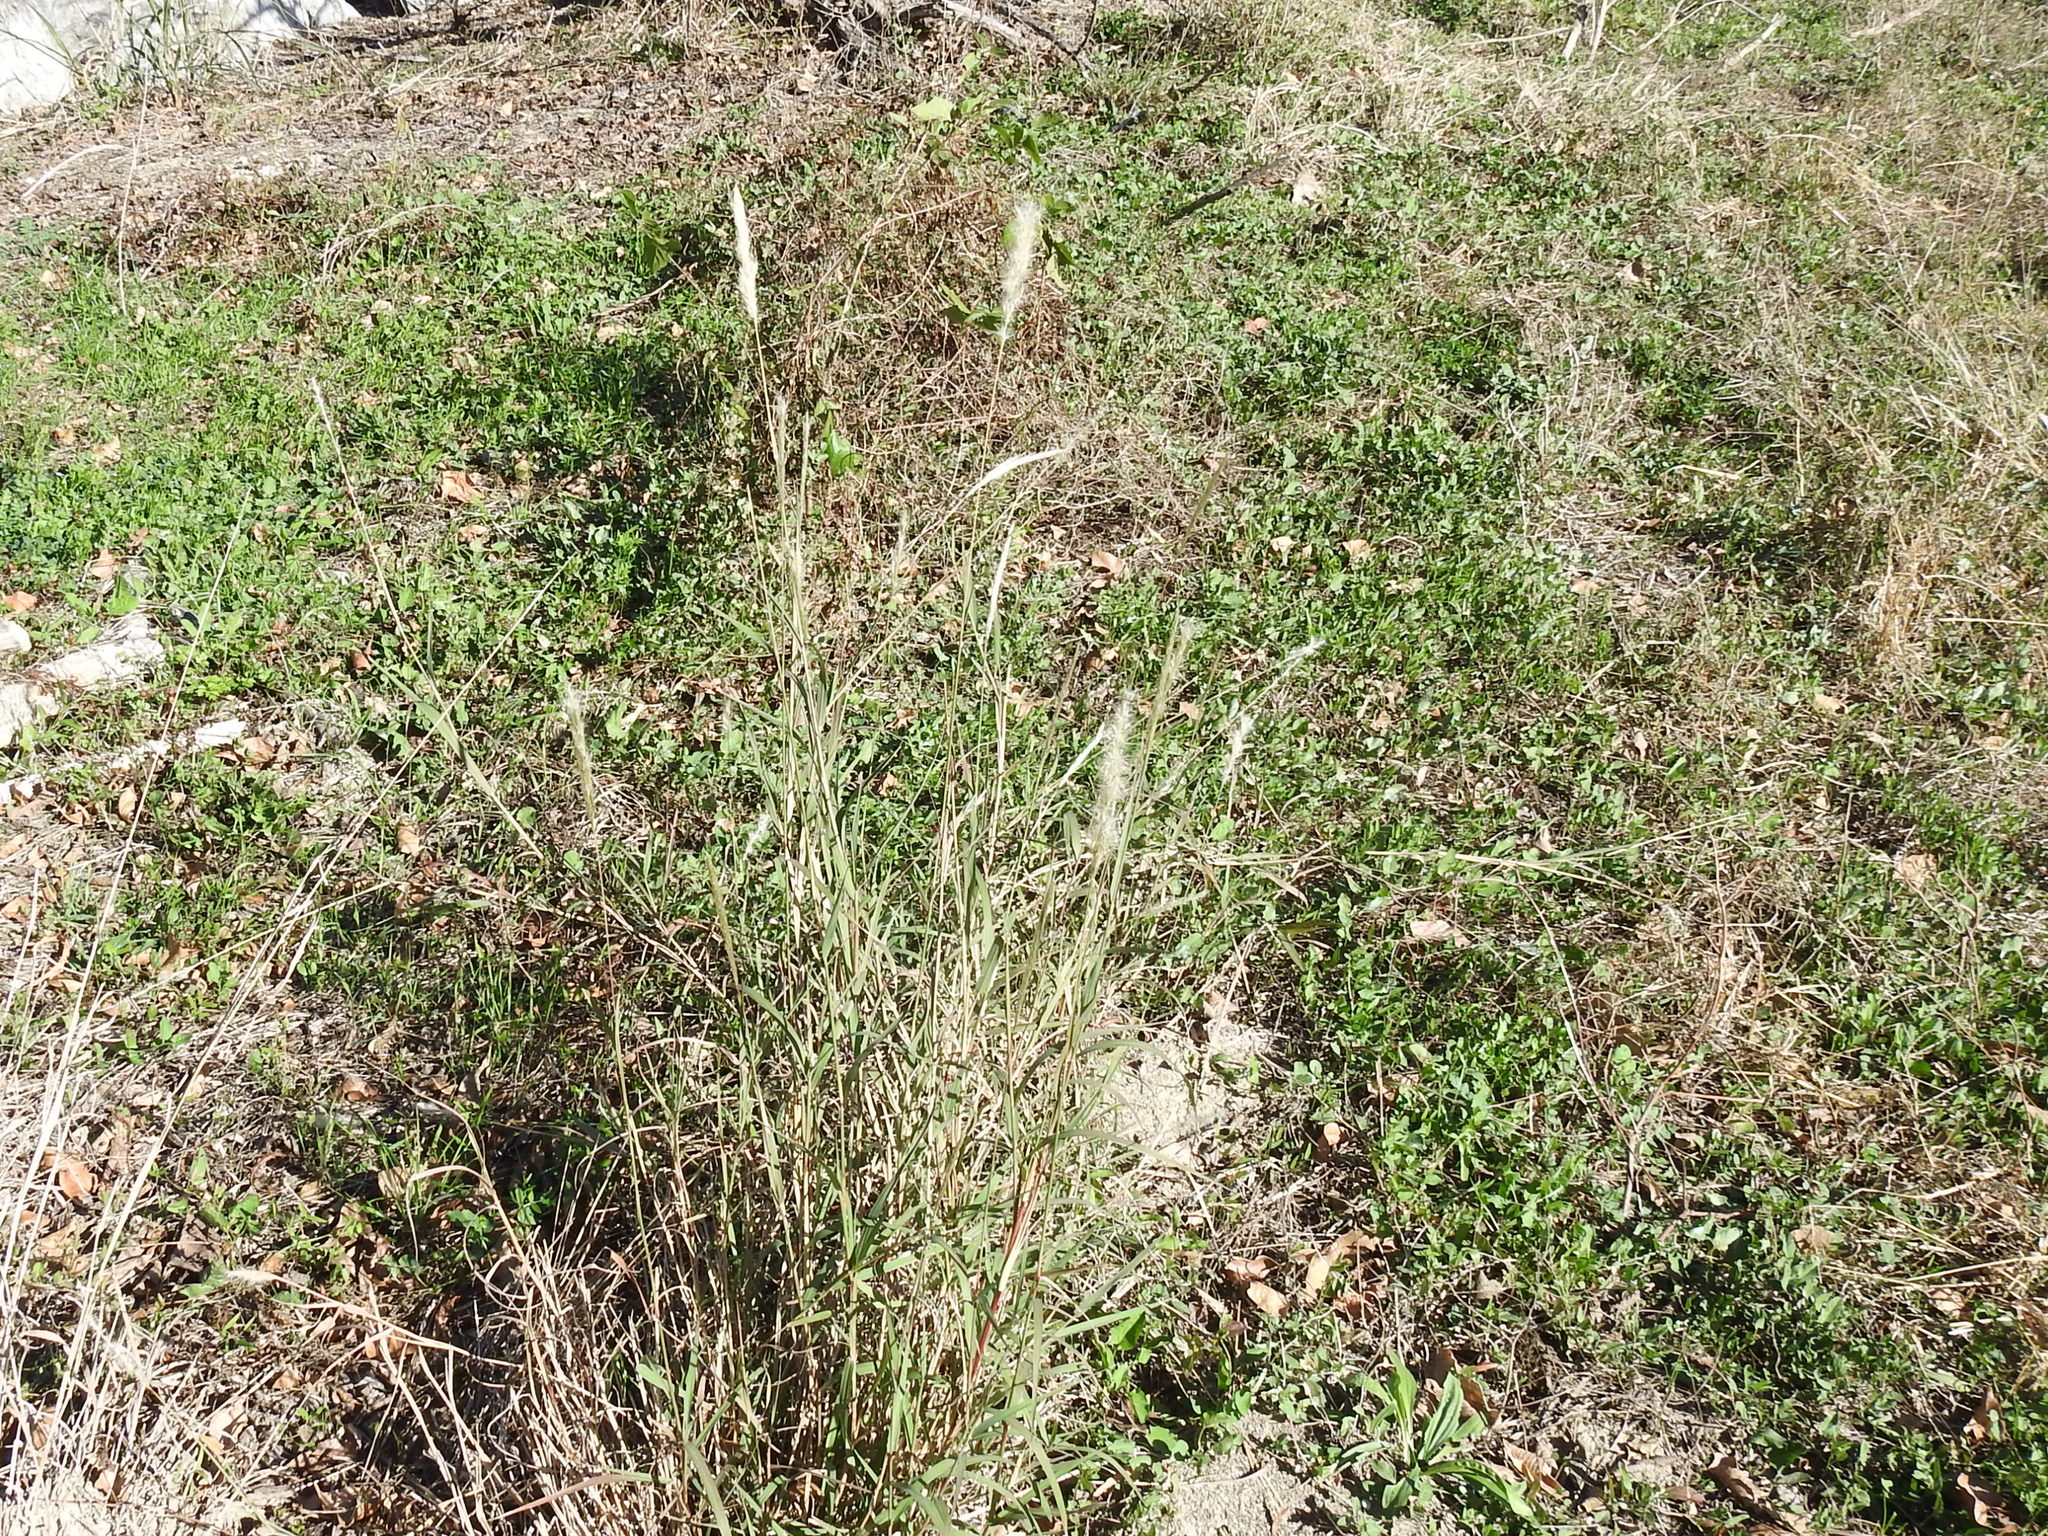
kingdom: Plantae
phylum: Tracheophyta
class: Liliopsida
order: Poales
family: Poaceae
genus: Bothriochloa
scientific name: Bothriochloa torreyana
